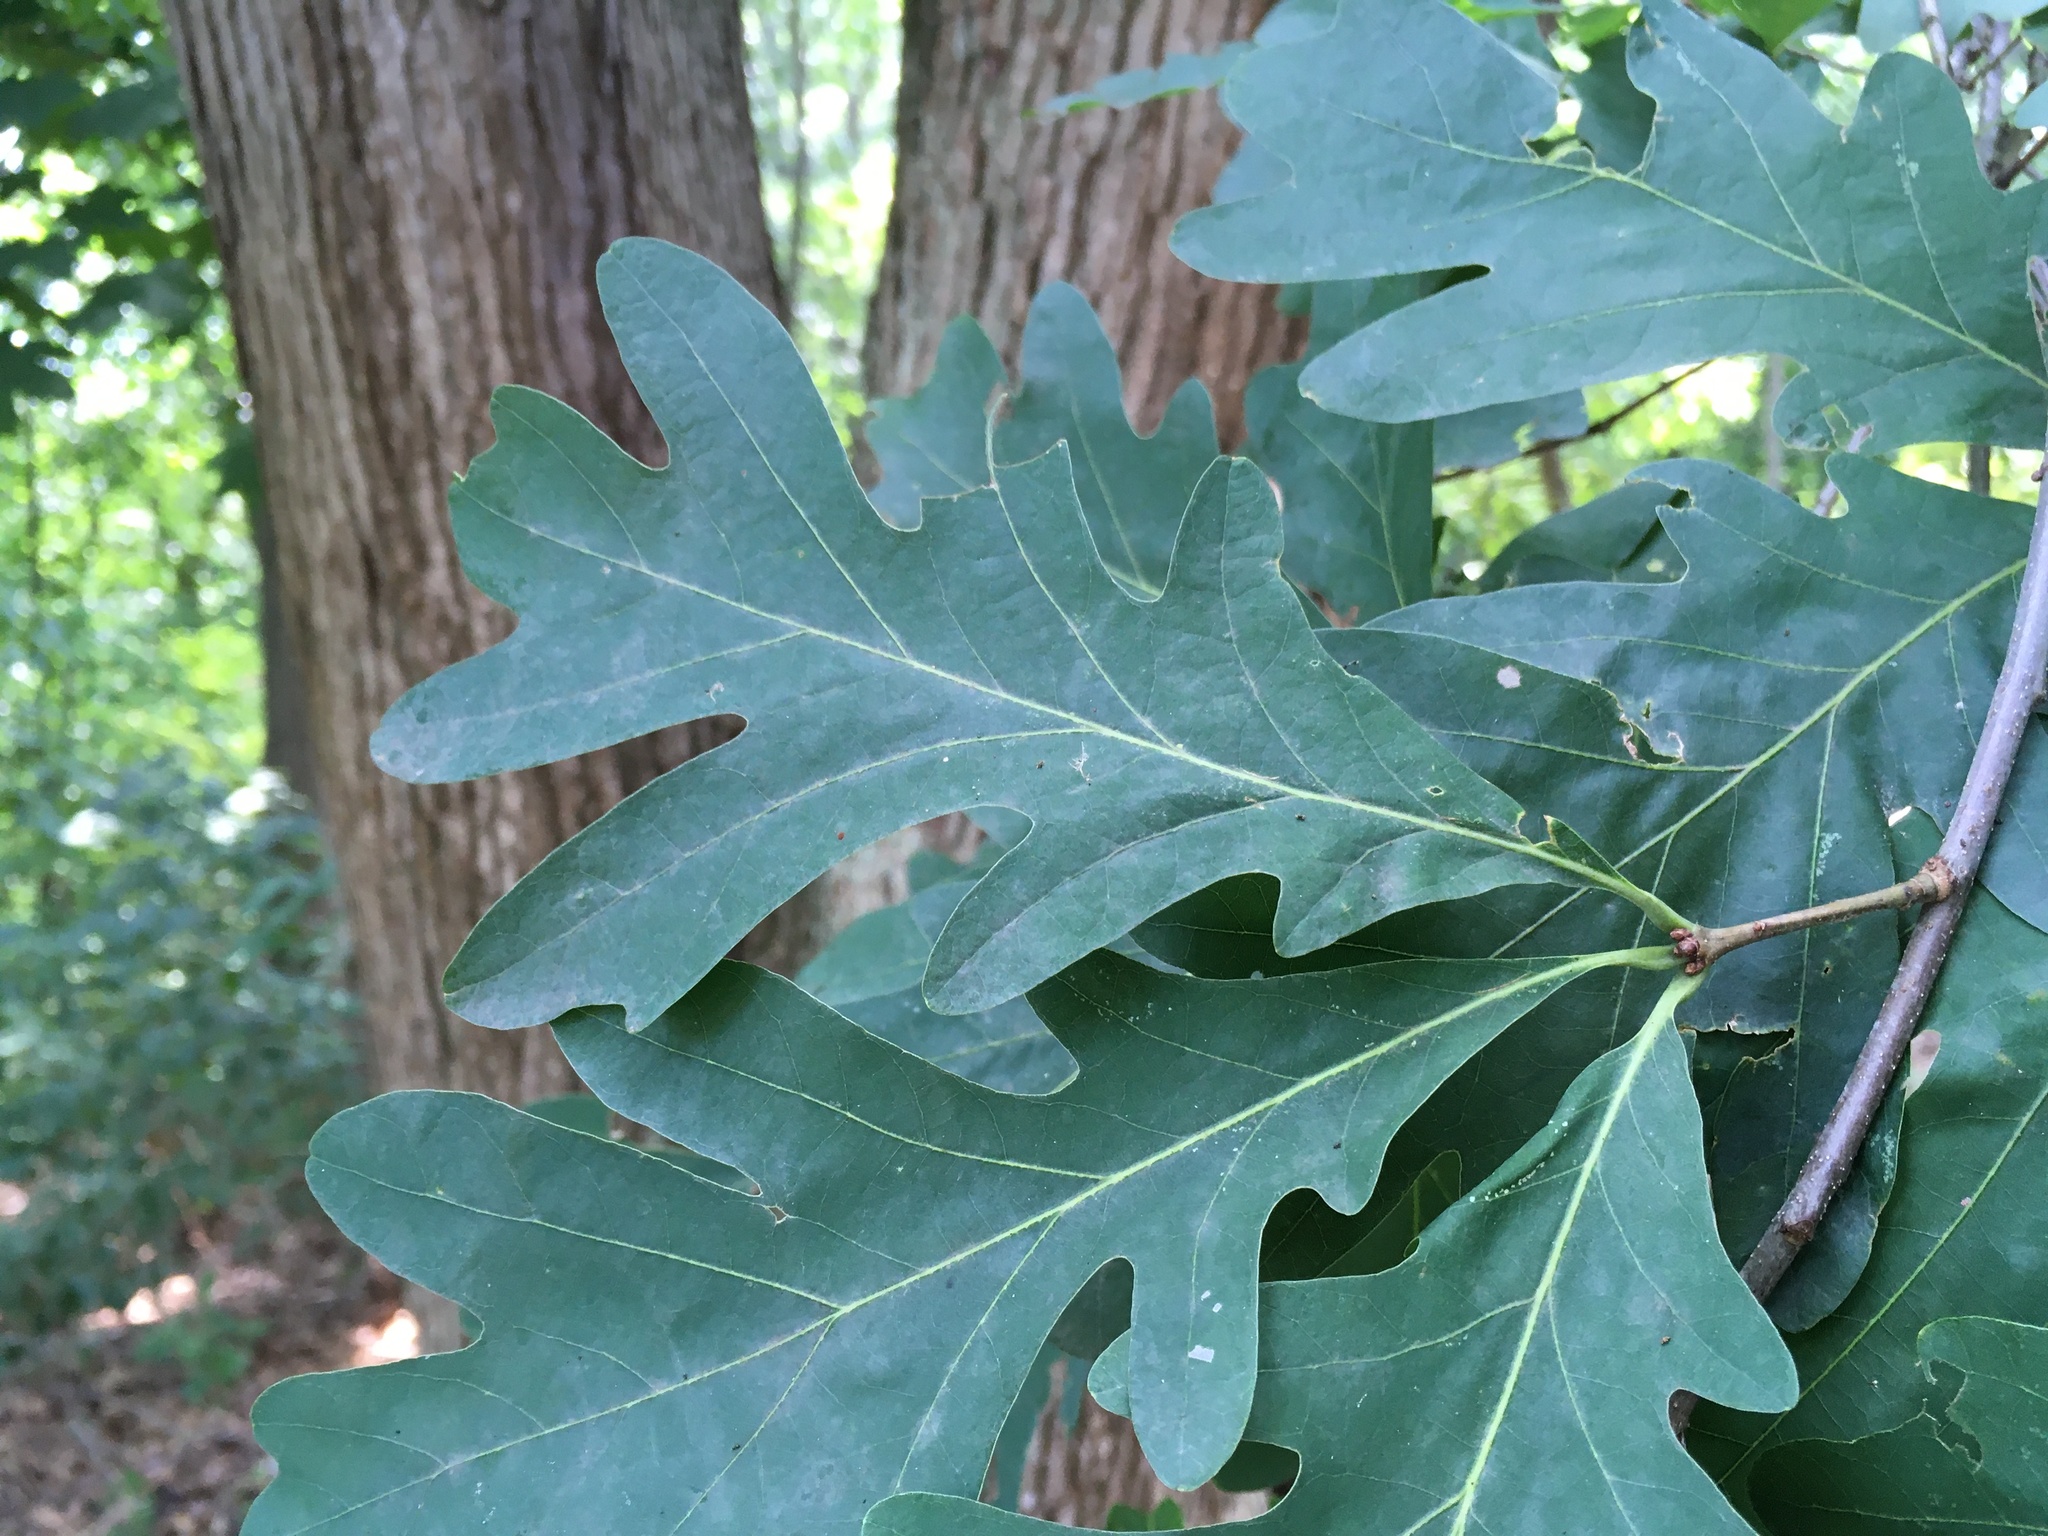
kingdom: Plantae
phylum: Tracheophyta
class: Magnoliopsida
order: Fagales
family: Fagaceae
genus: Quercus
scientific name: Quercus alba
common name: White oak
